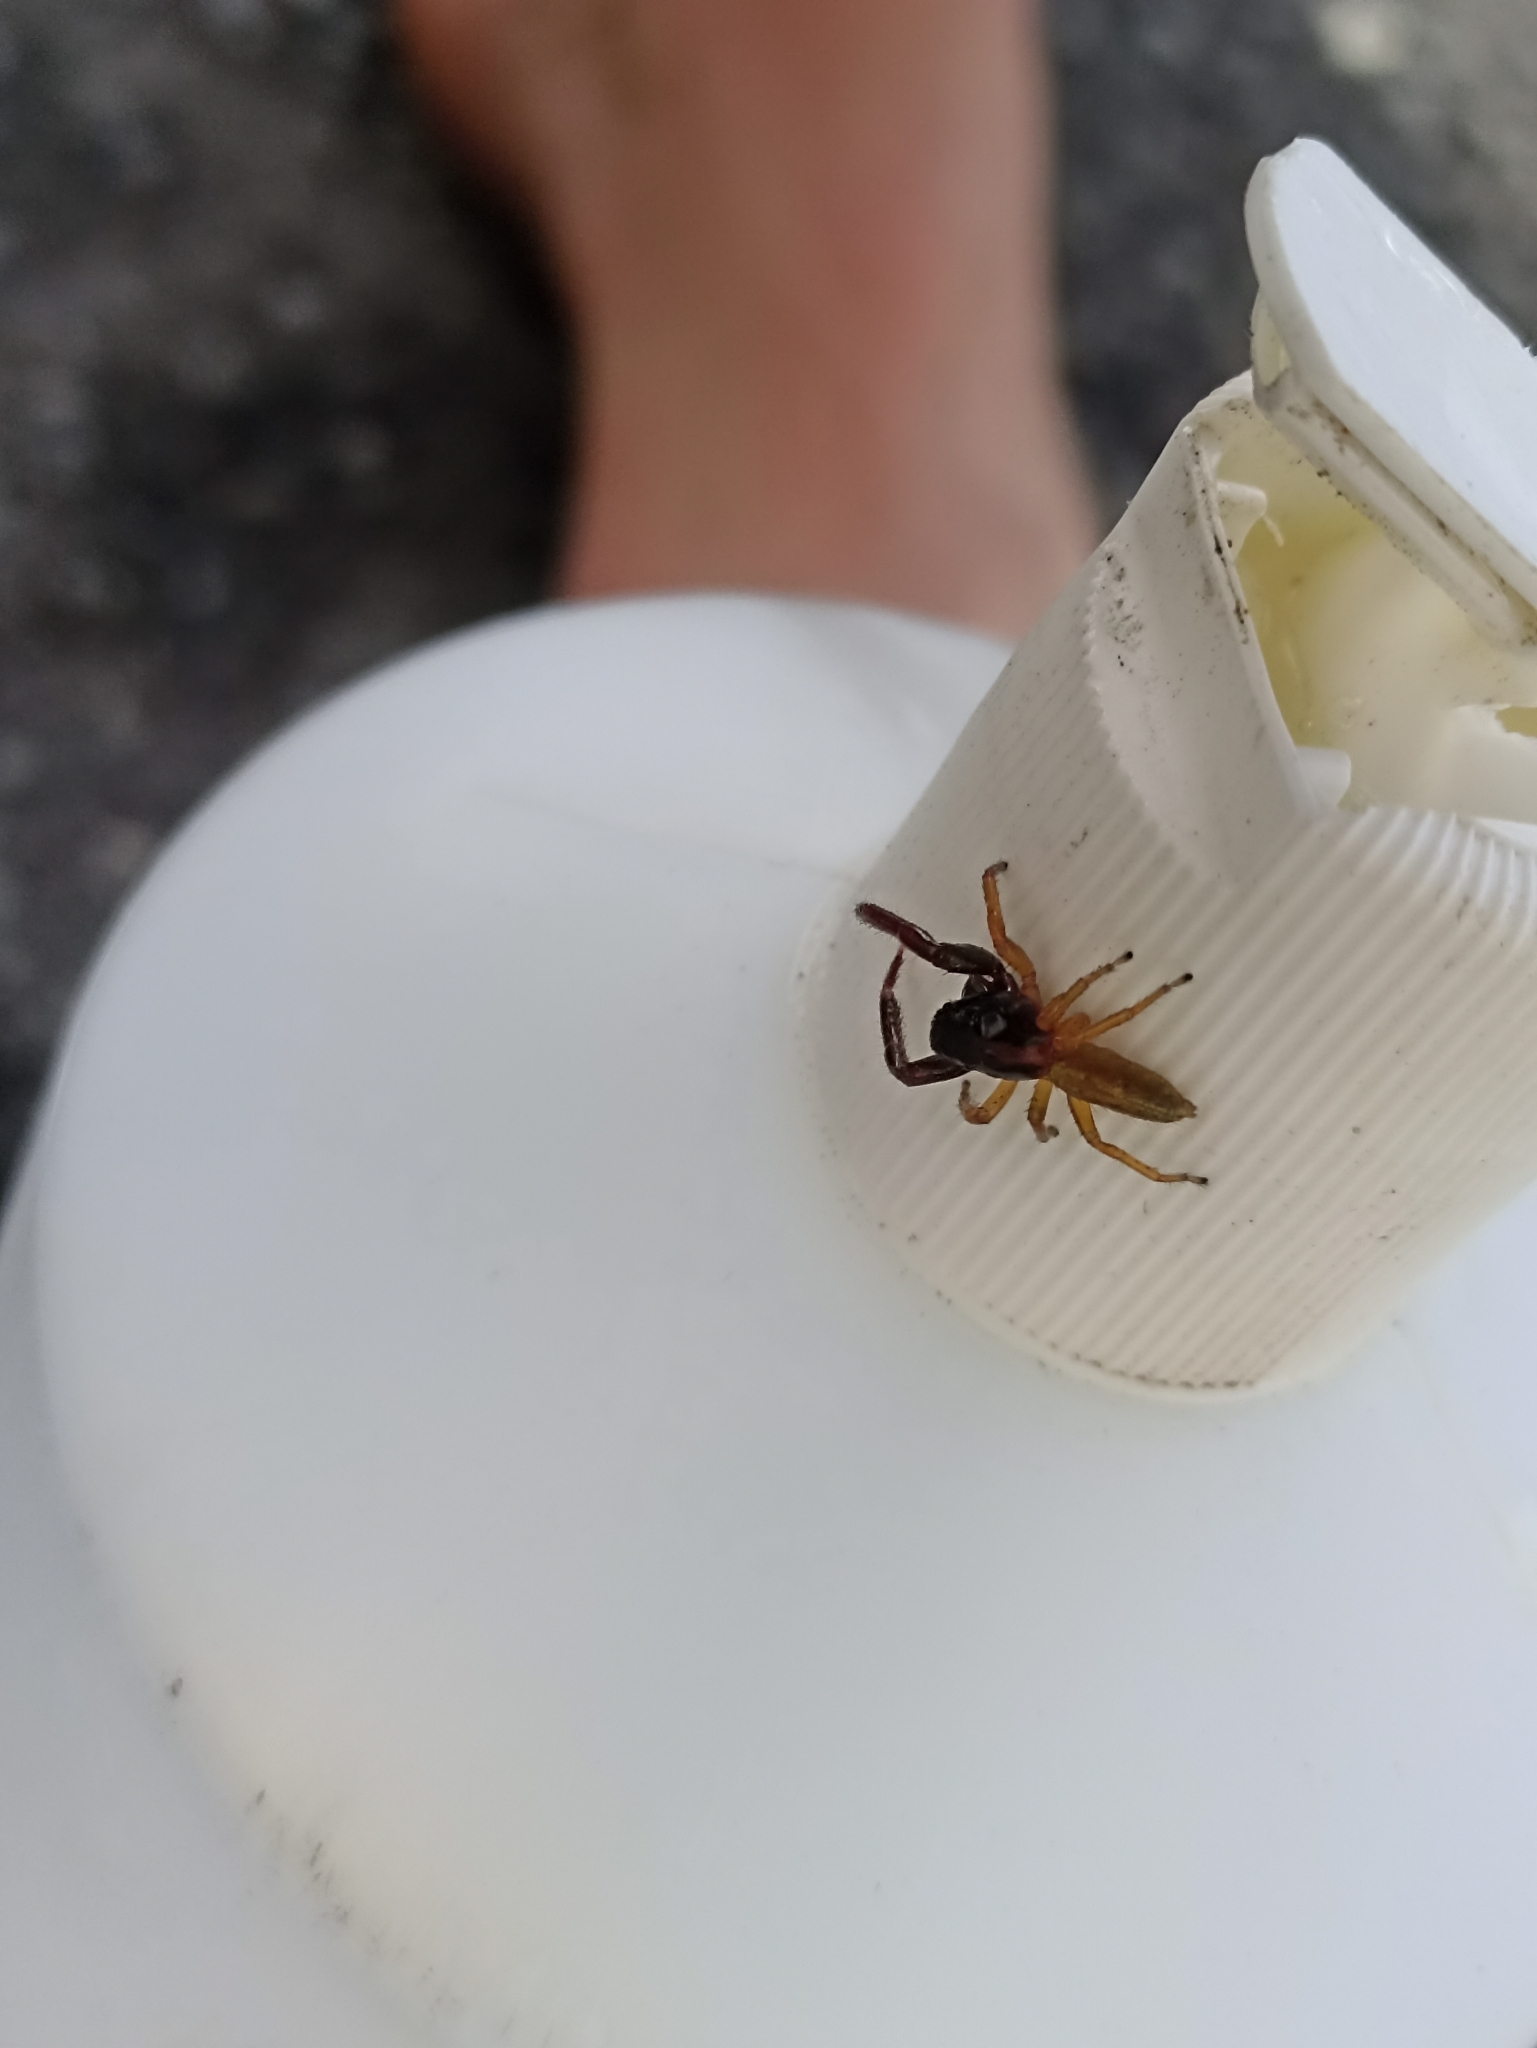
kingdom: Animalia
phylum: Arthropoda
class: Arachnida
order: Araneae
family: Salticidae
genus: Trite
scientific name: Trite planiceps
